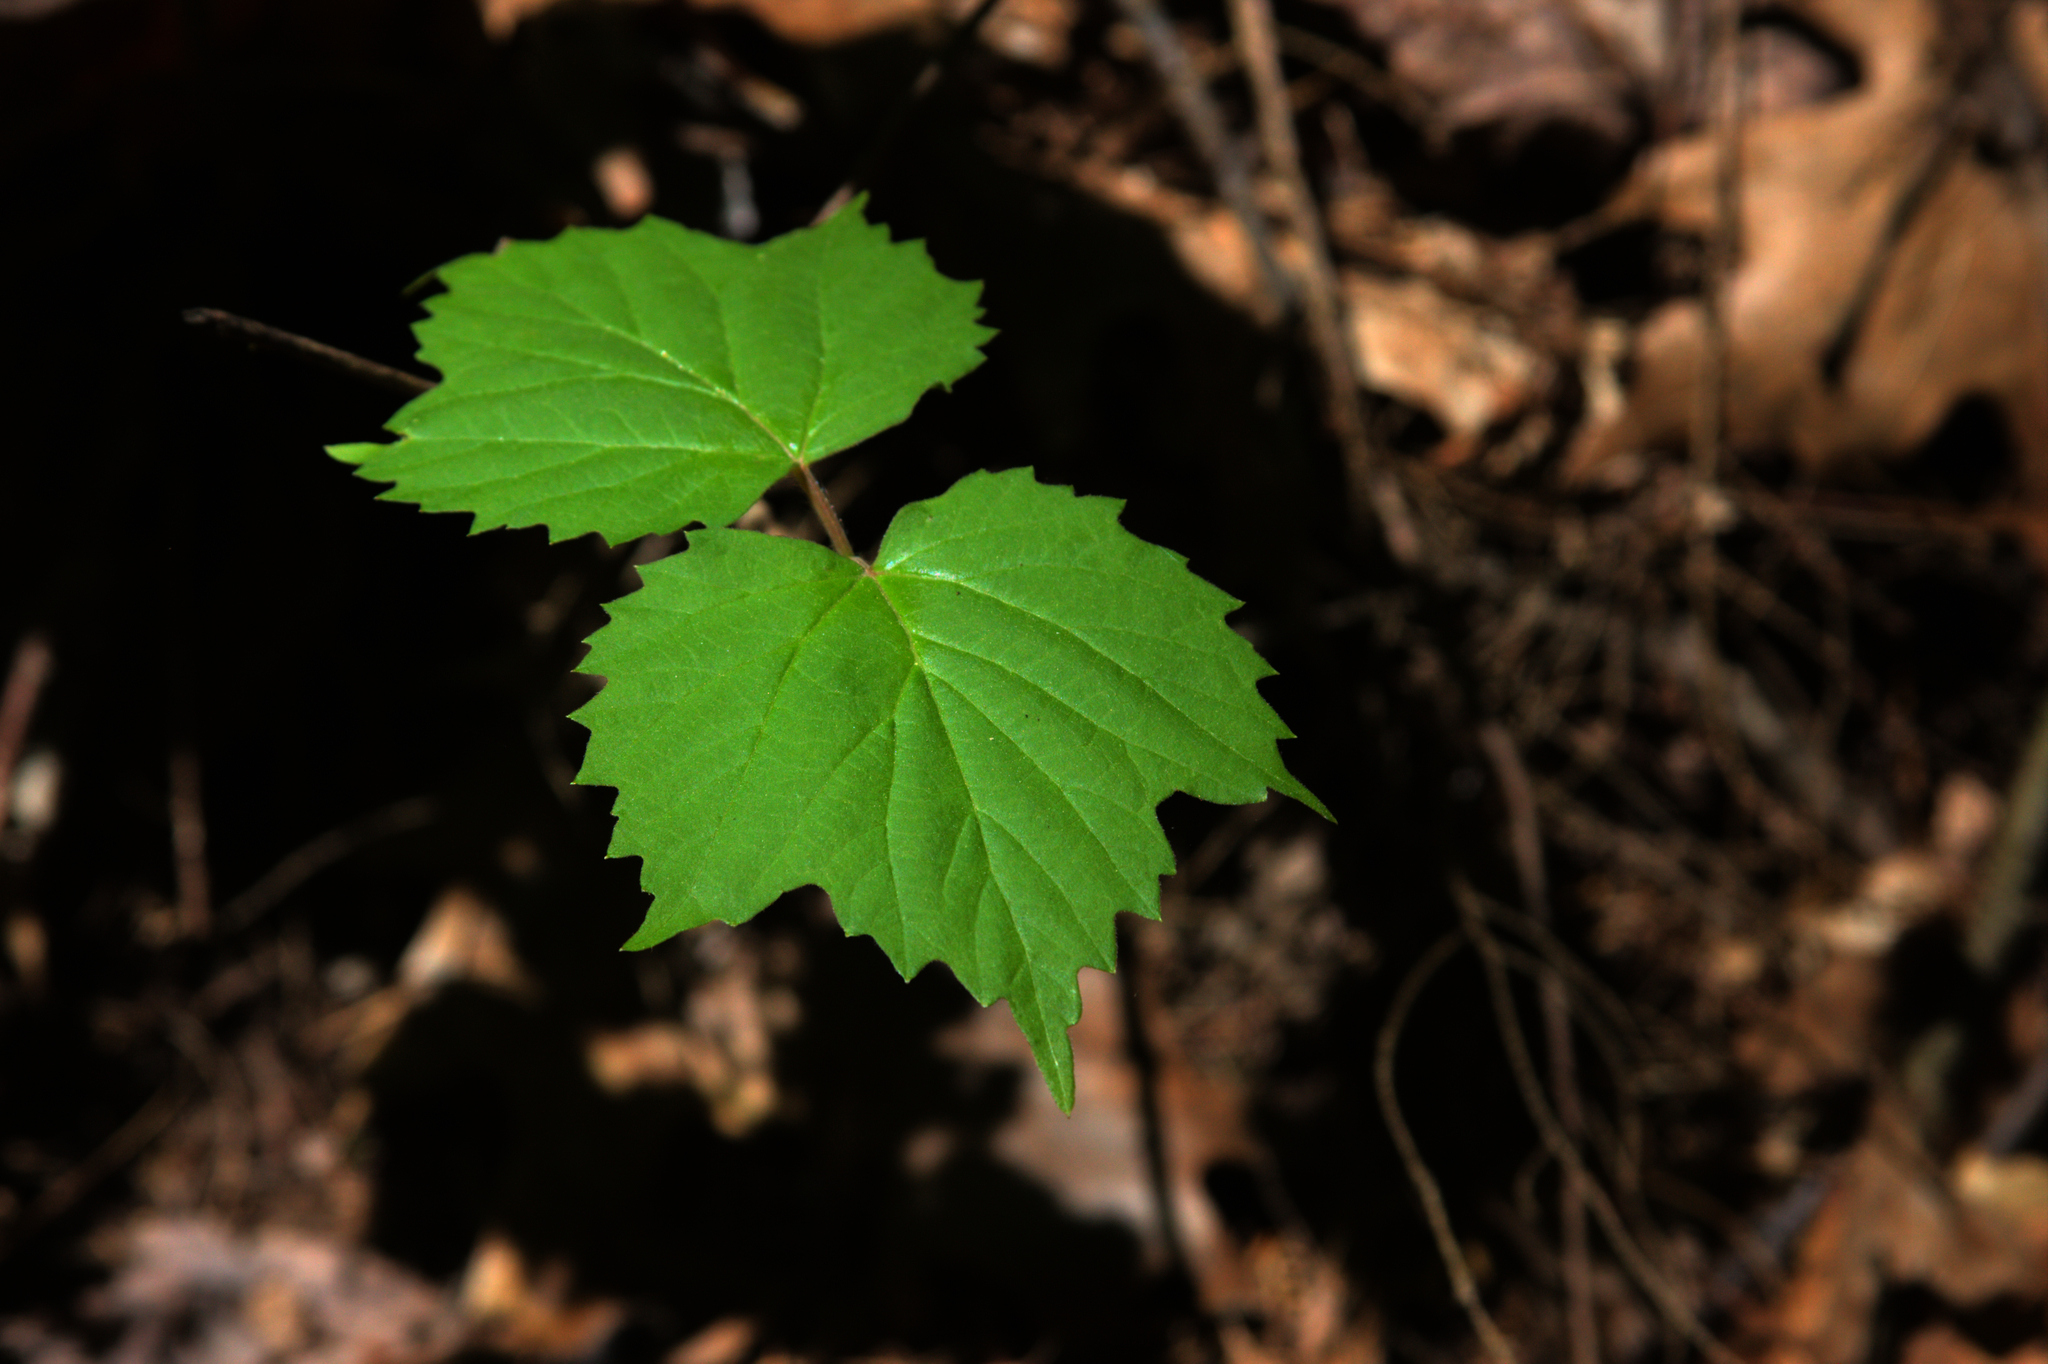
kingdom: Plantae
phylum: Tracheophyta
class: Magnoliopsida
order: Dipsacales
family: Viburnaceae
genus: Viburnum
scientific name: Viburnum acerifolium
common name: Dockmackie
